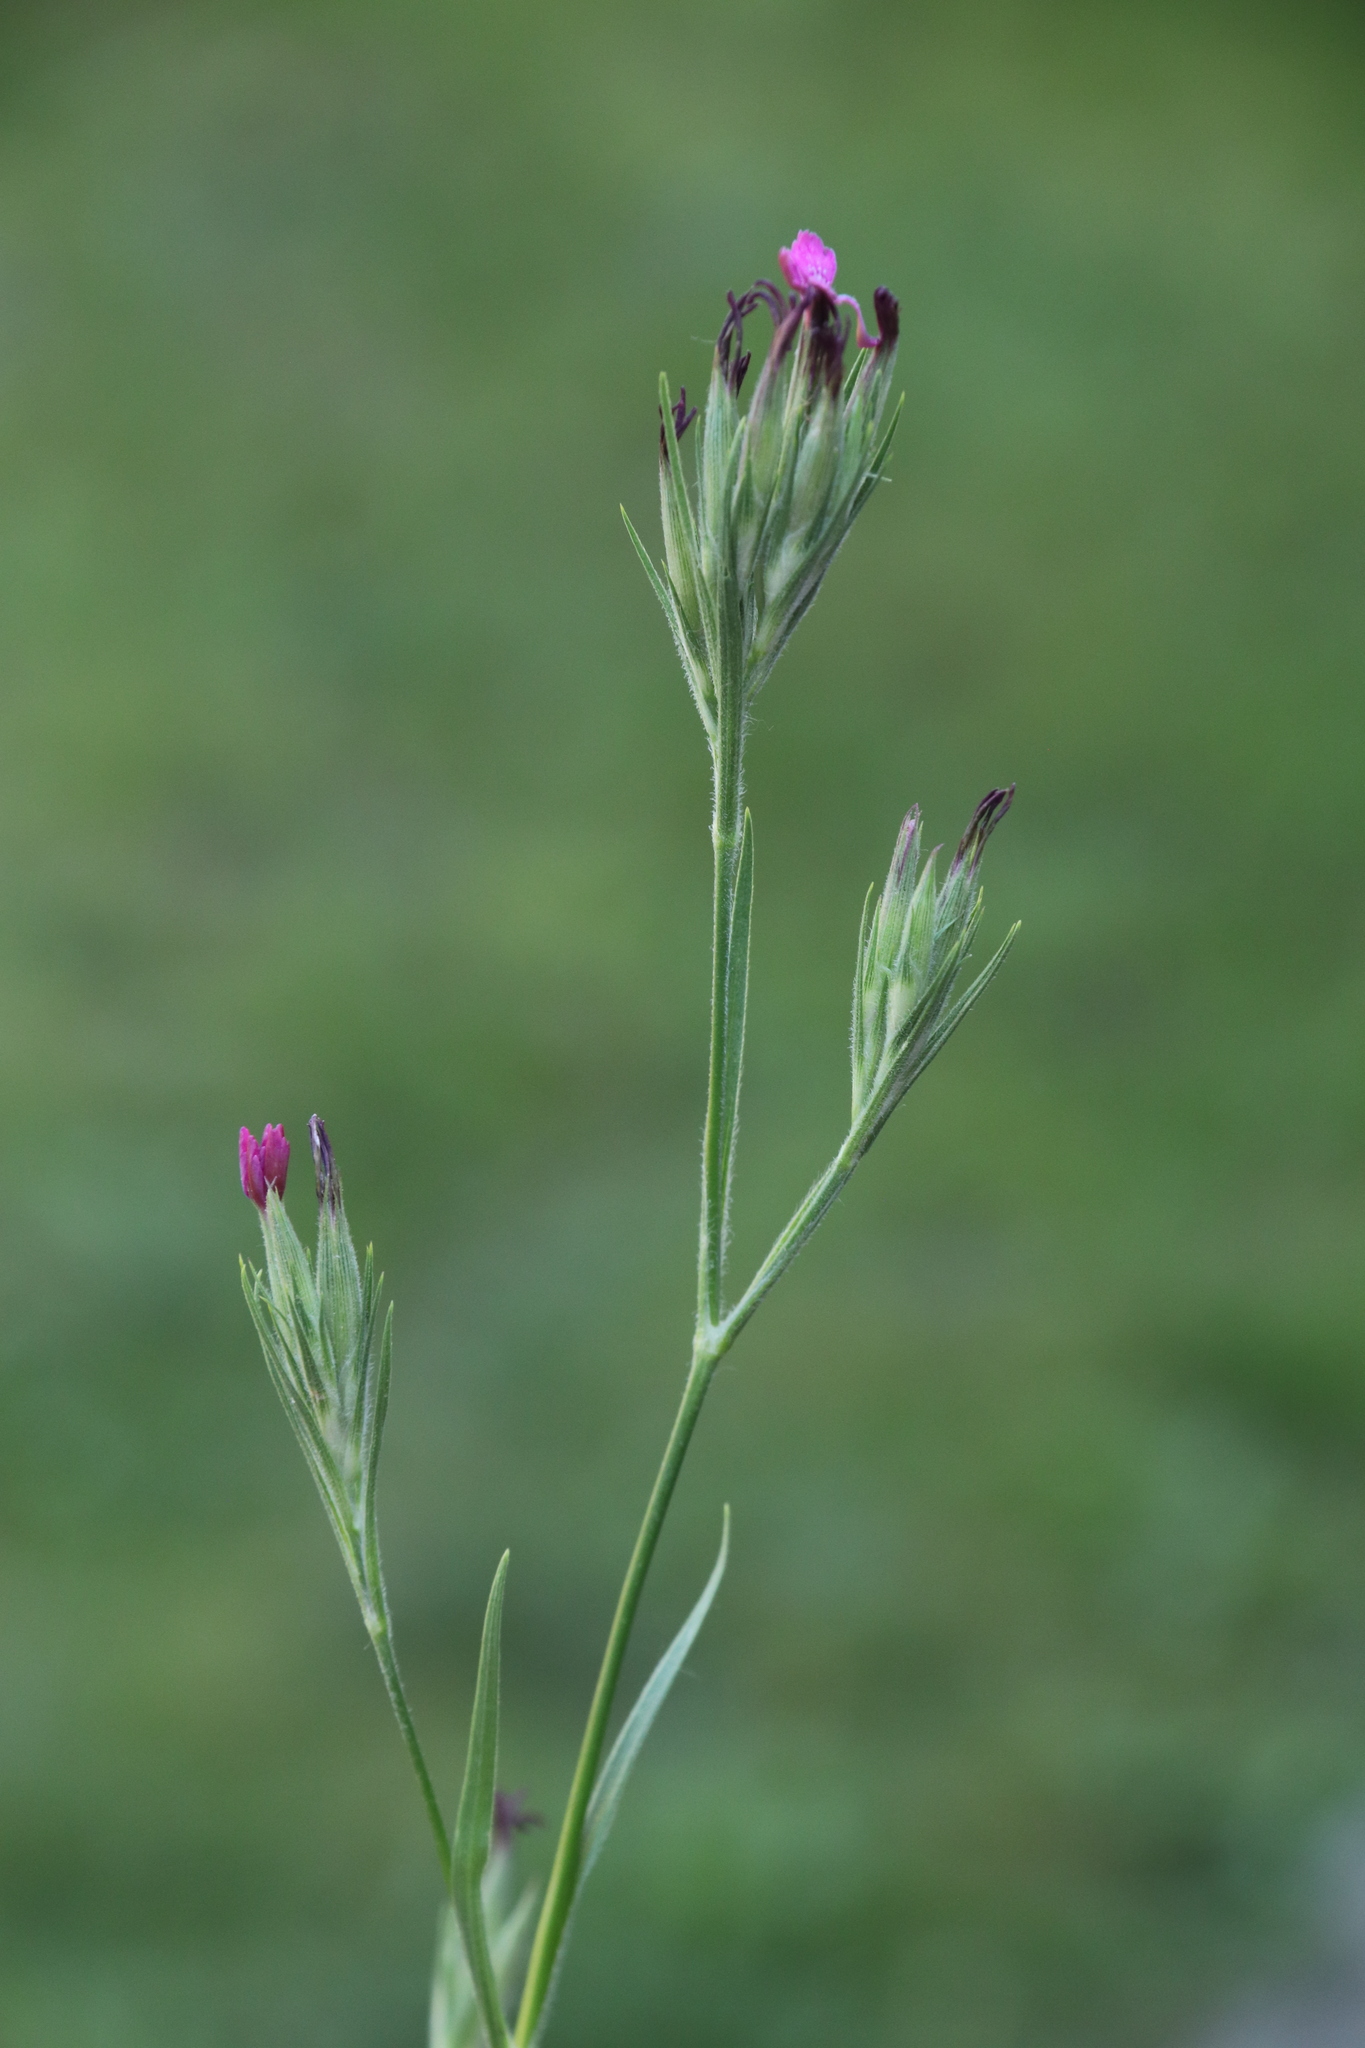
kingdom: Plantae
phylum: Tracheophyta
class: Magnoliopsida
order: Caryophyllales
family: Caryophyllaceae
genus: Dianthus
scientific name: Dianthus armeria
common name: Deptford pink
